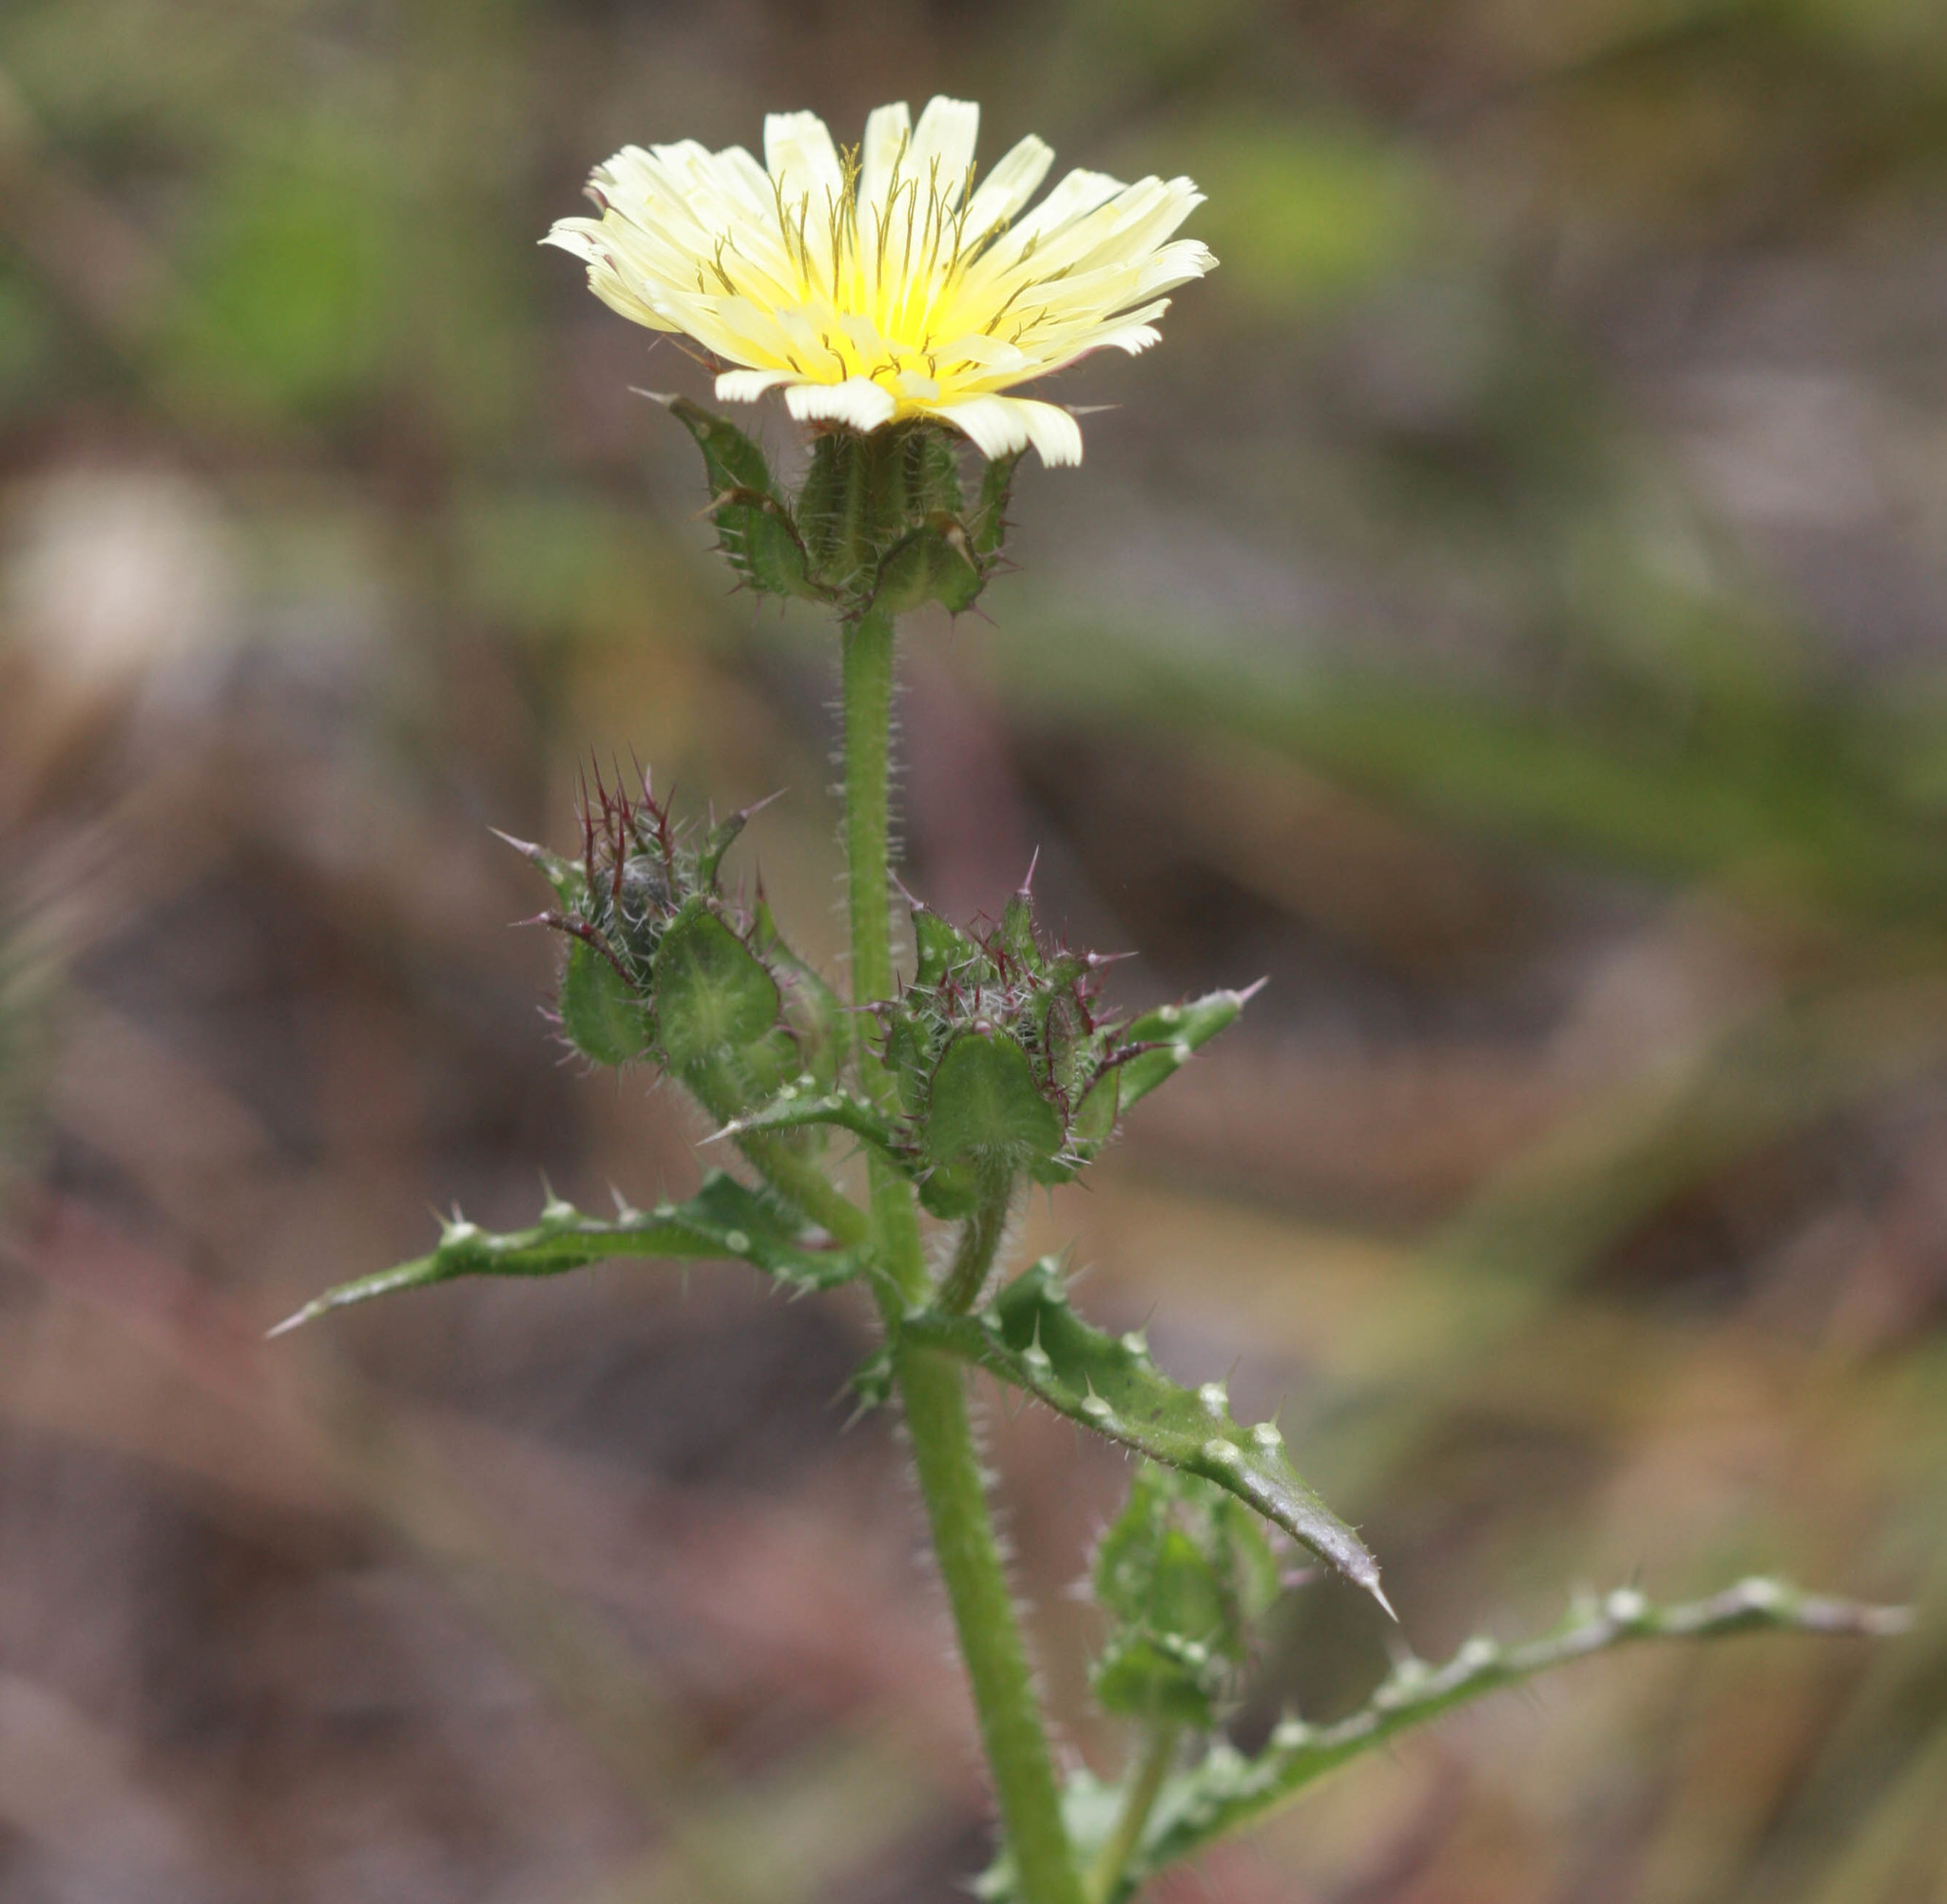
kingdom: Plantae
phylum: Tracheophyta
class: Magnoliopsida
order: Asterales
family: Asteraceae
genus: Helminthotheca
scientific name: Helminthotheca echioides
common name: Ox-tongue
